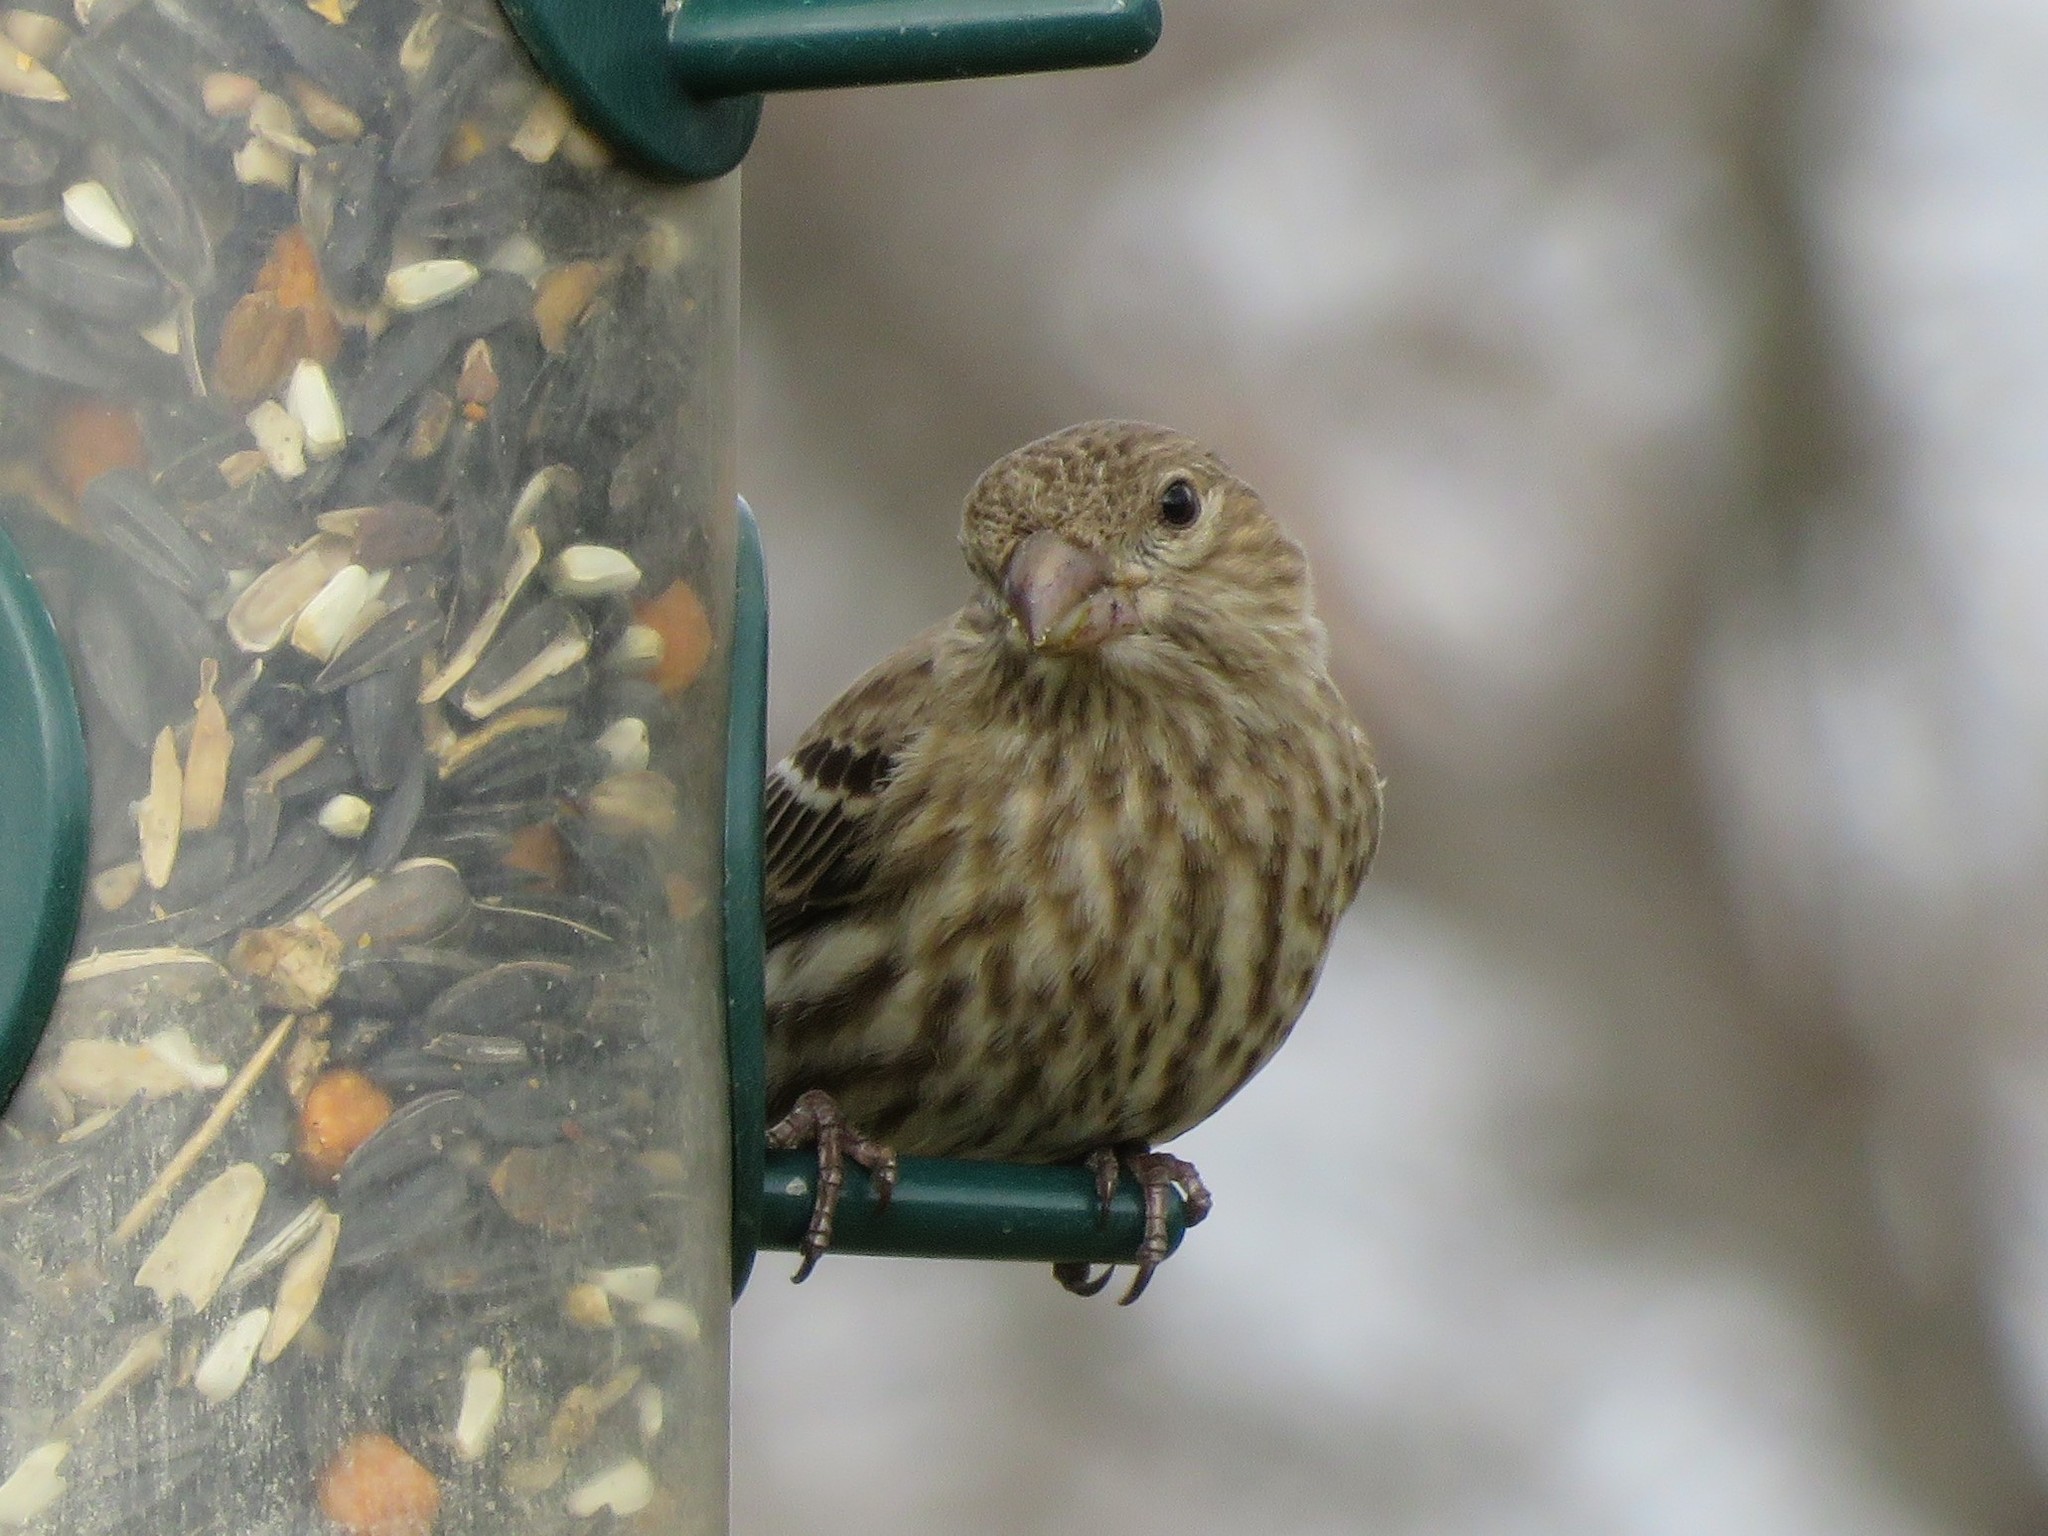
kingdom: Animalia
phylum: Chordata
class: Aves
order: Passeriformes
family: Fringillidae
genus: Haemorhous
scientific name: Haemorhous mexicanus
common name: House finch
